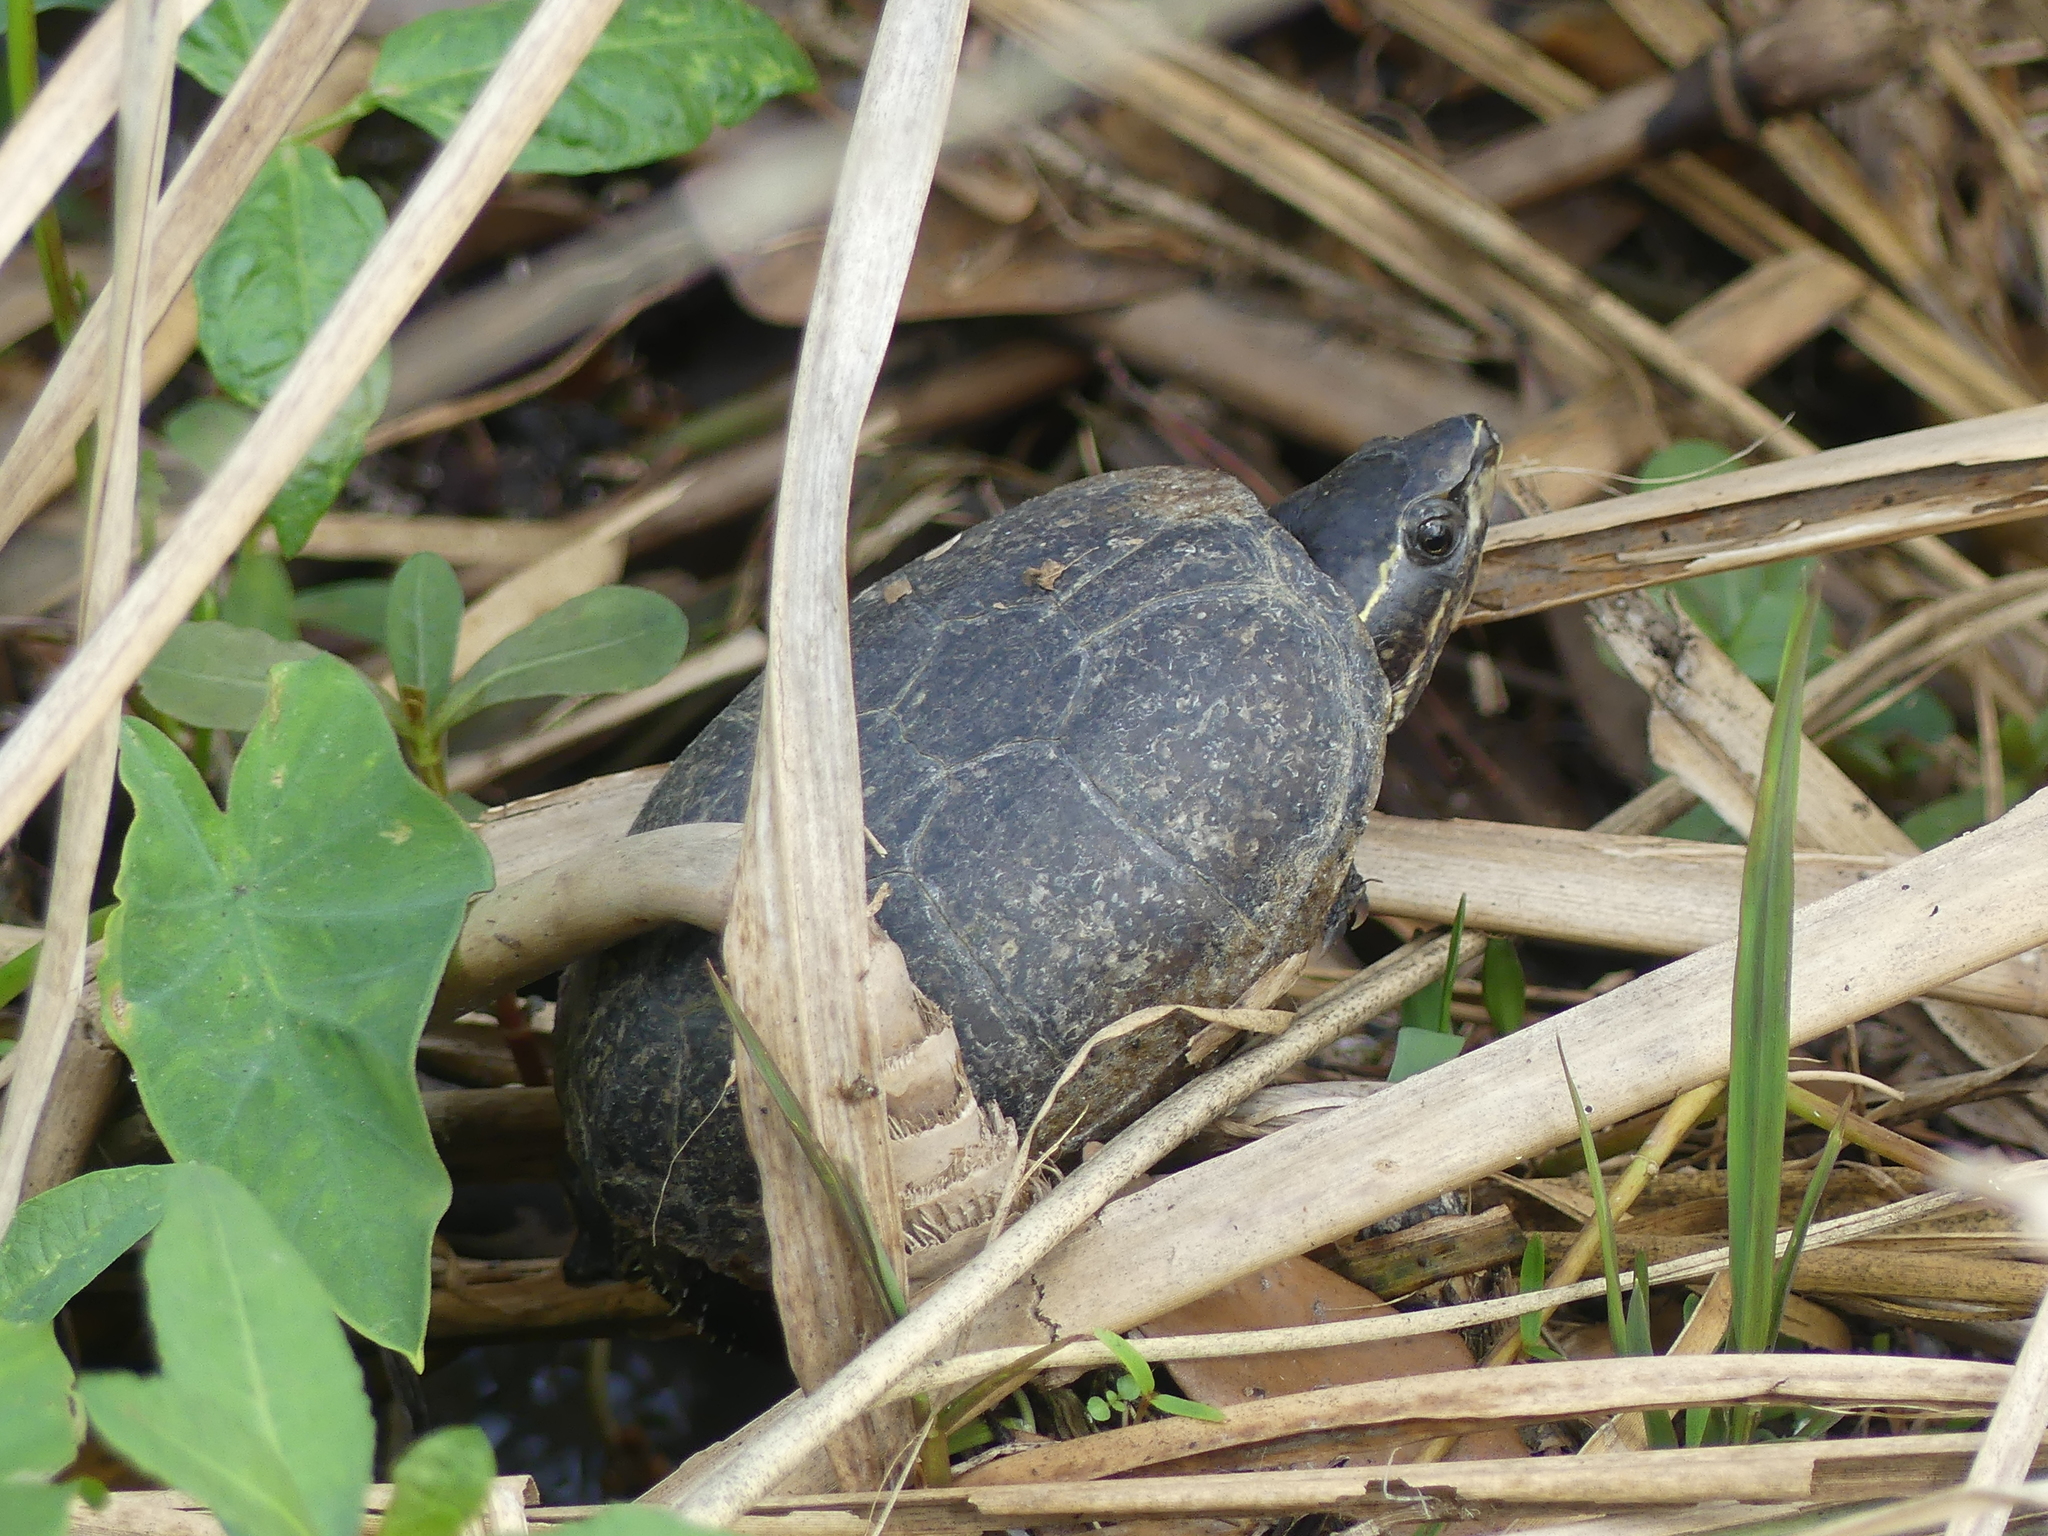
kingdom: Animalia
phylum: Chordata
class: Testudines
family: Kinosternidae
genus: Sternotherus
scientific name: Sternotherus odoratus
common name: Common musk turtle
